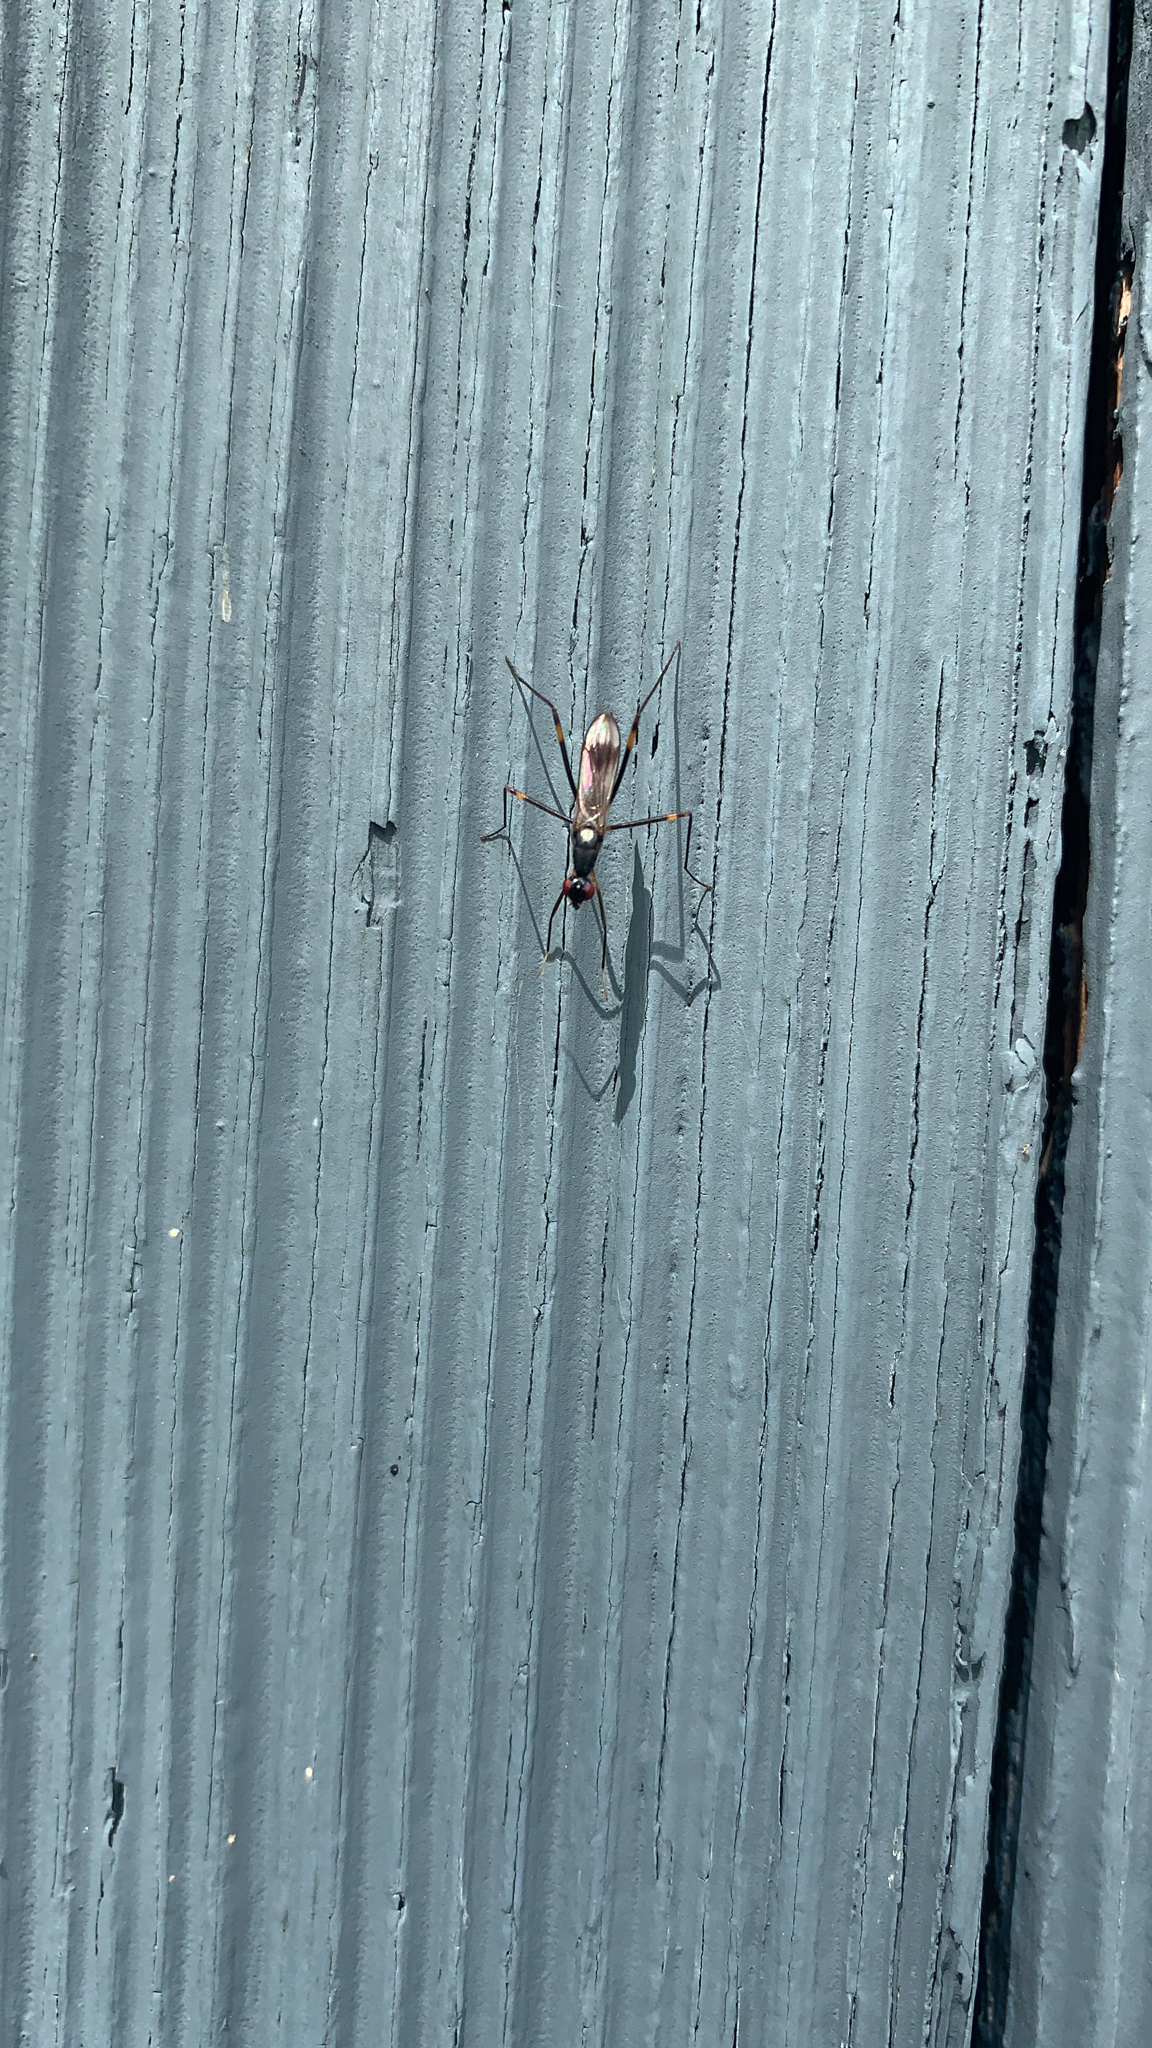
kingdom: Animalia
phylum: Arthropoda
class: Insecta
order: Diptera
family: Micropezidae
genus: Rainieria
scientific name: Rainieria antennaepes
